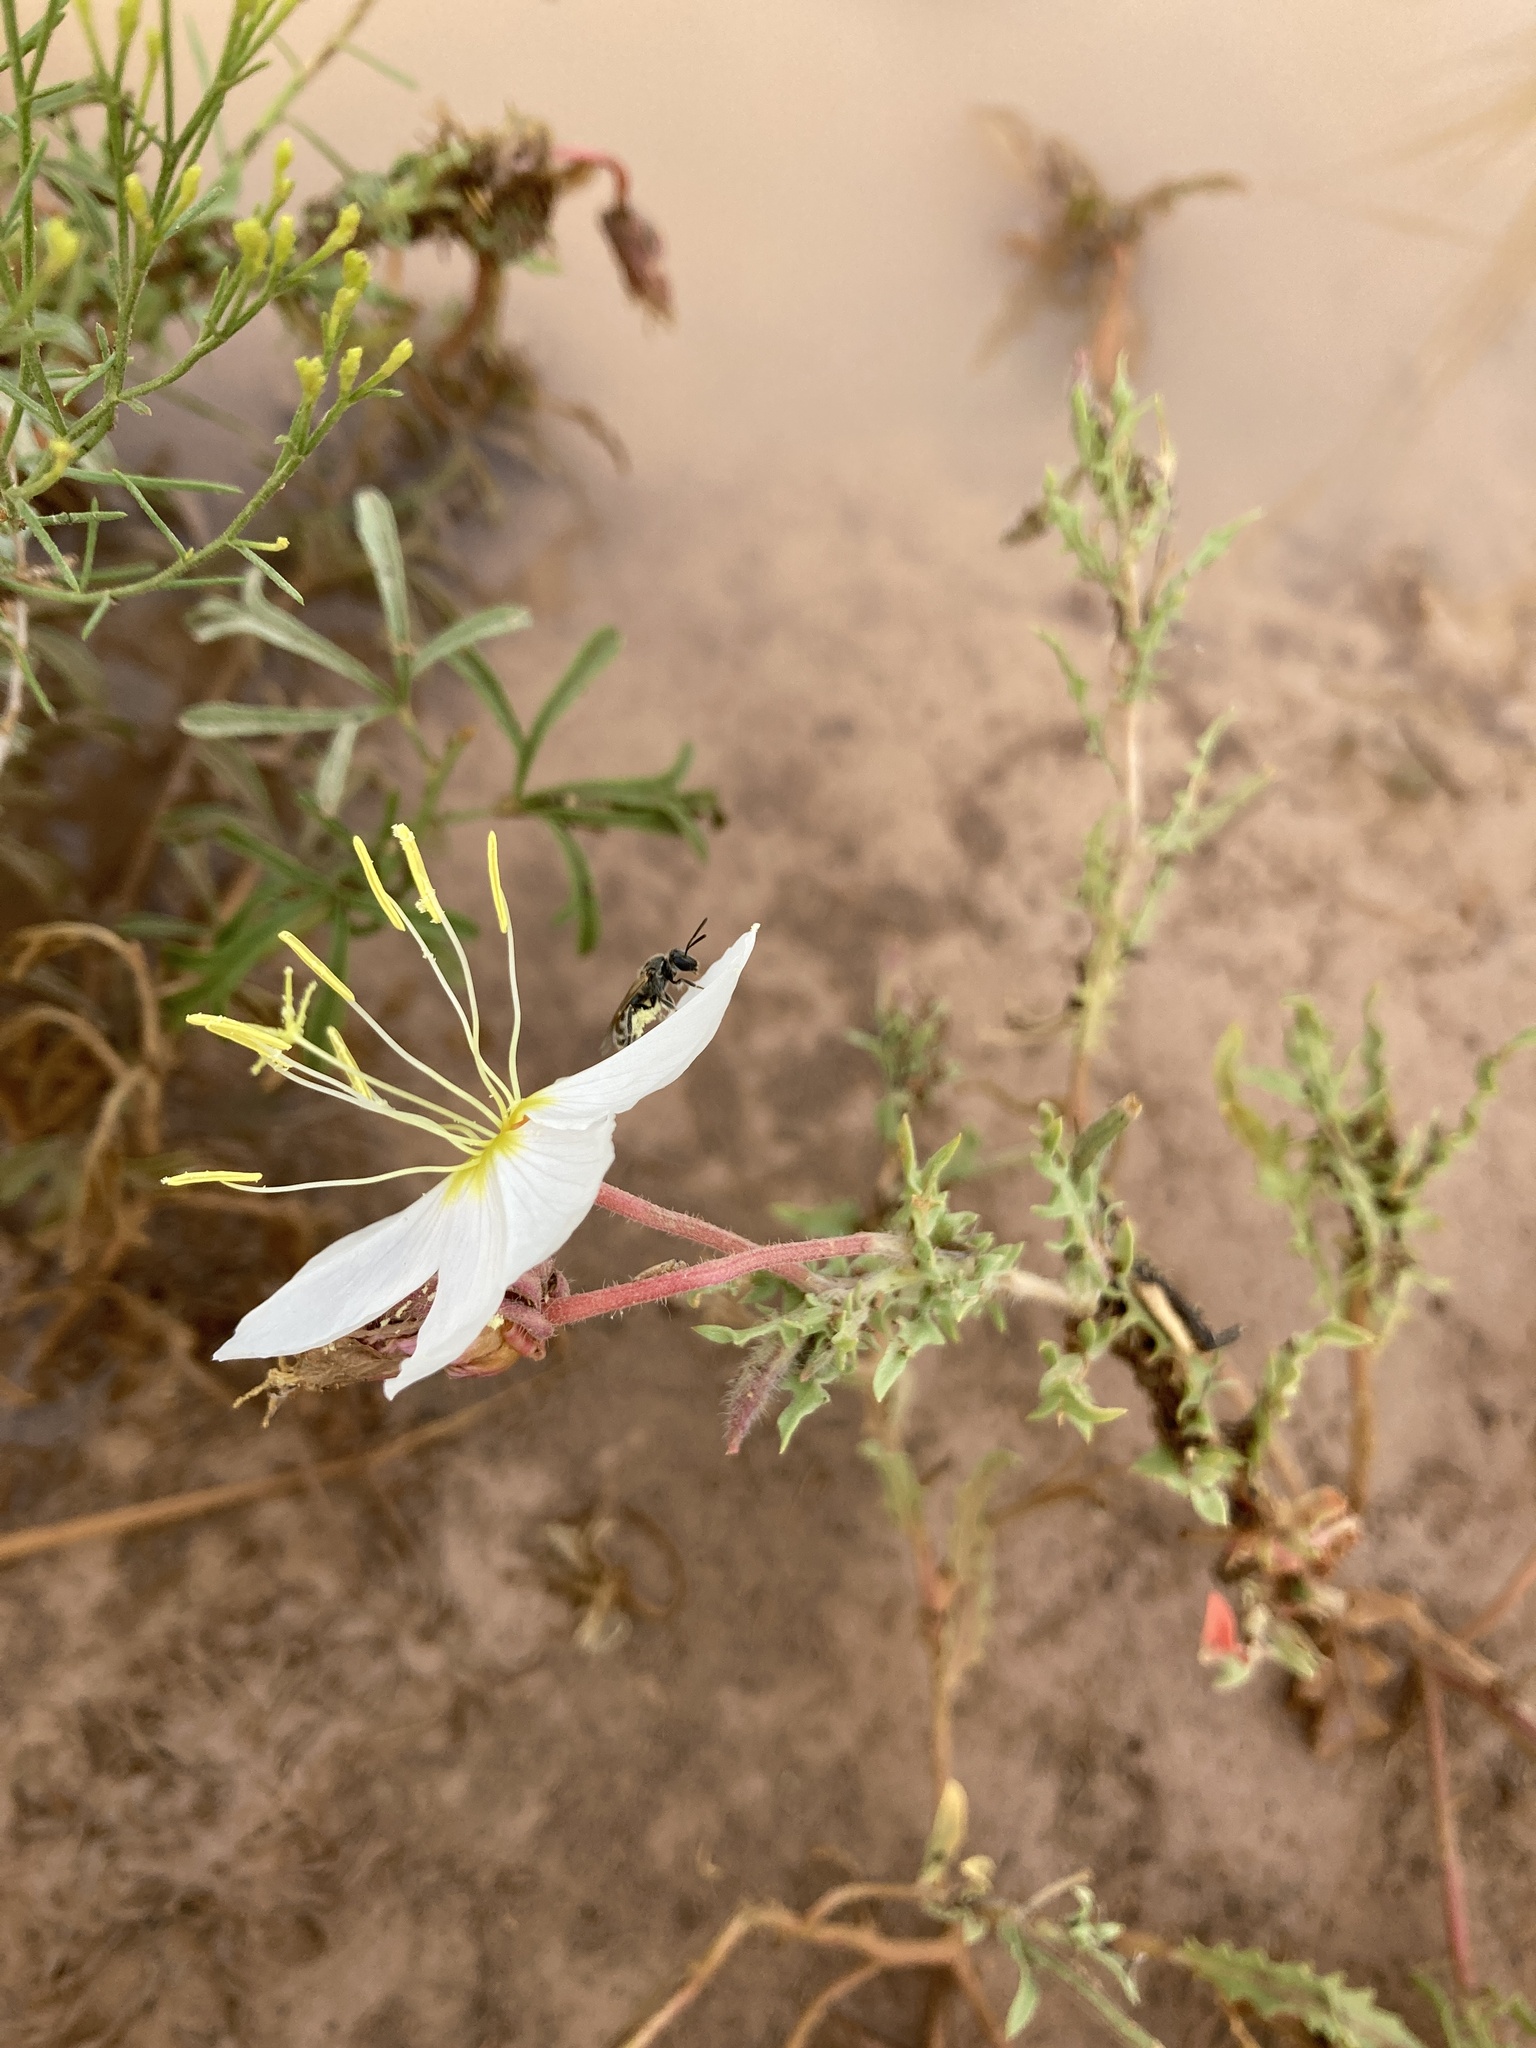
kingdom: Plantae
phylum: Tracheophyta
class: Magnoliopsida
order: Myrtales
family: Onagraceae
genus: Oenothera
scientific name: Oenothera pallida
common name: Pale evening-primrose
